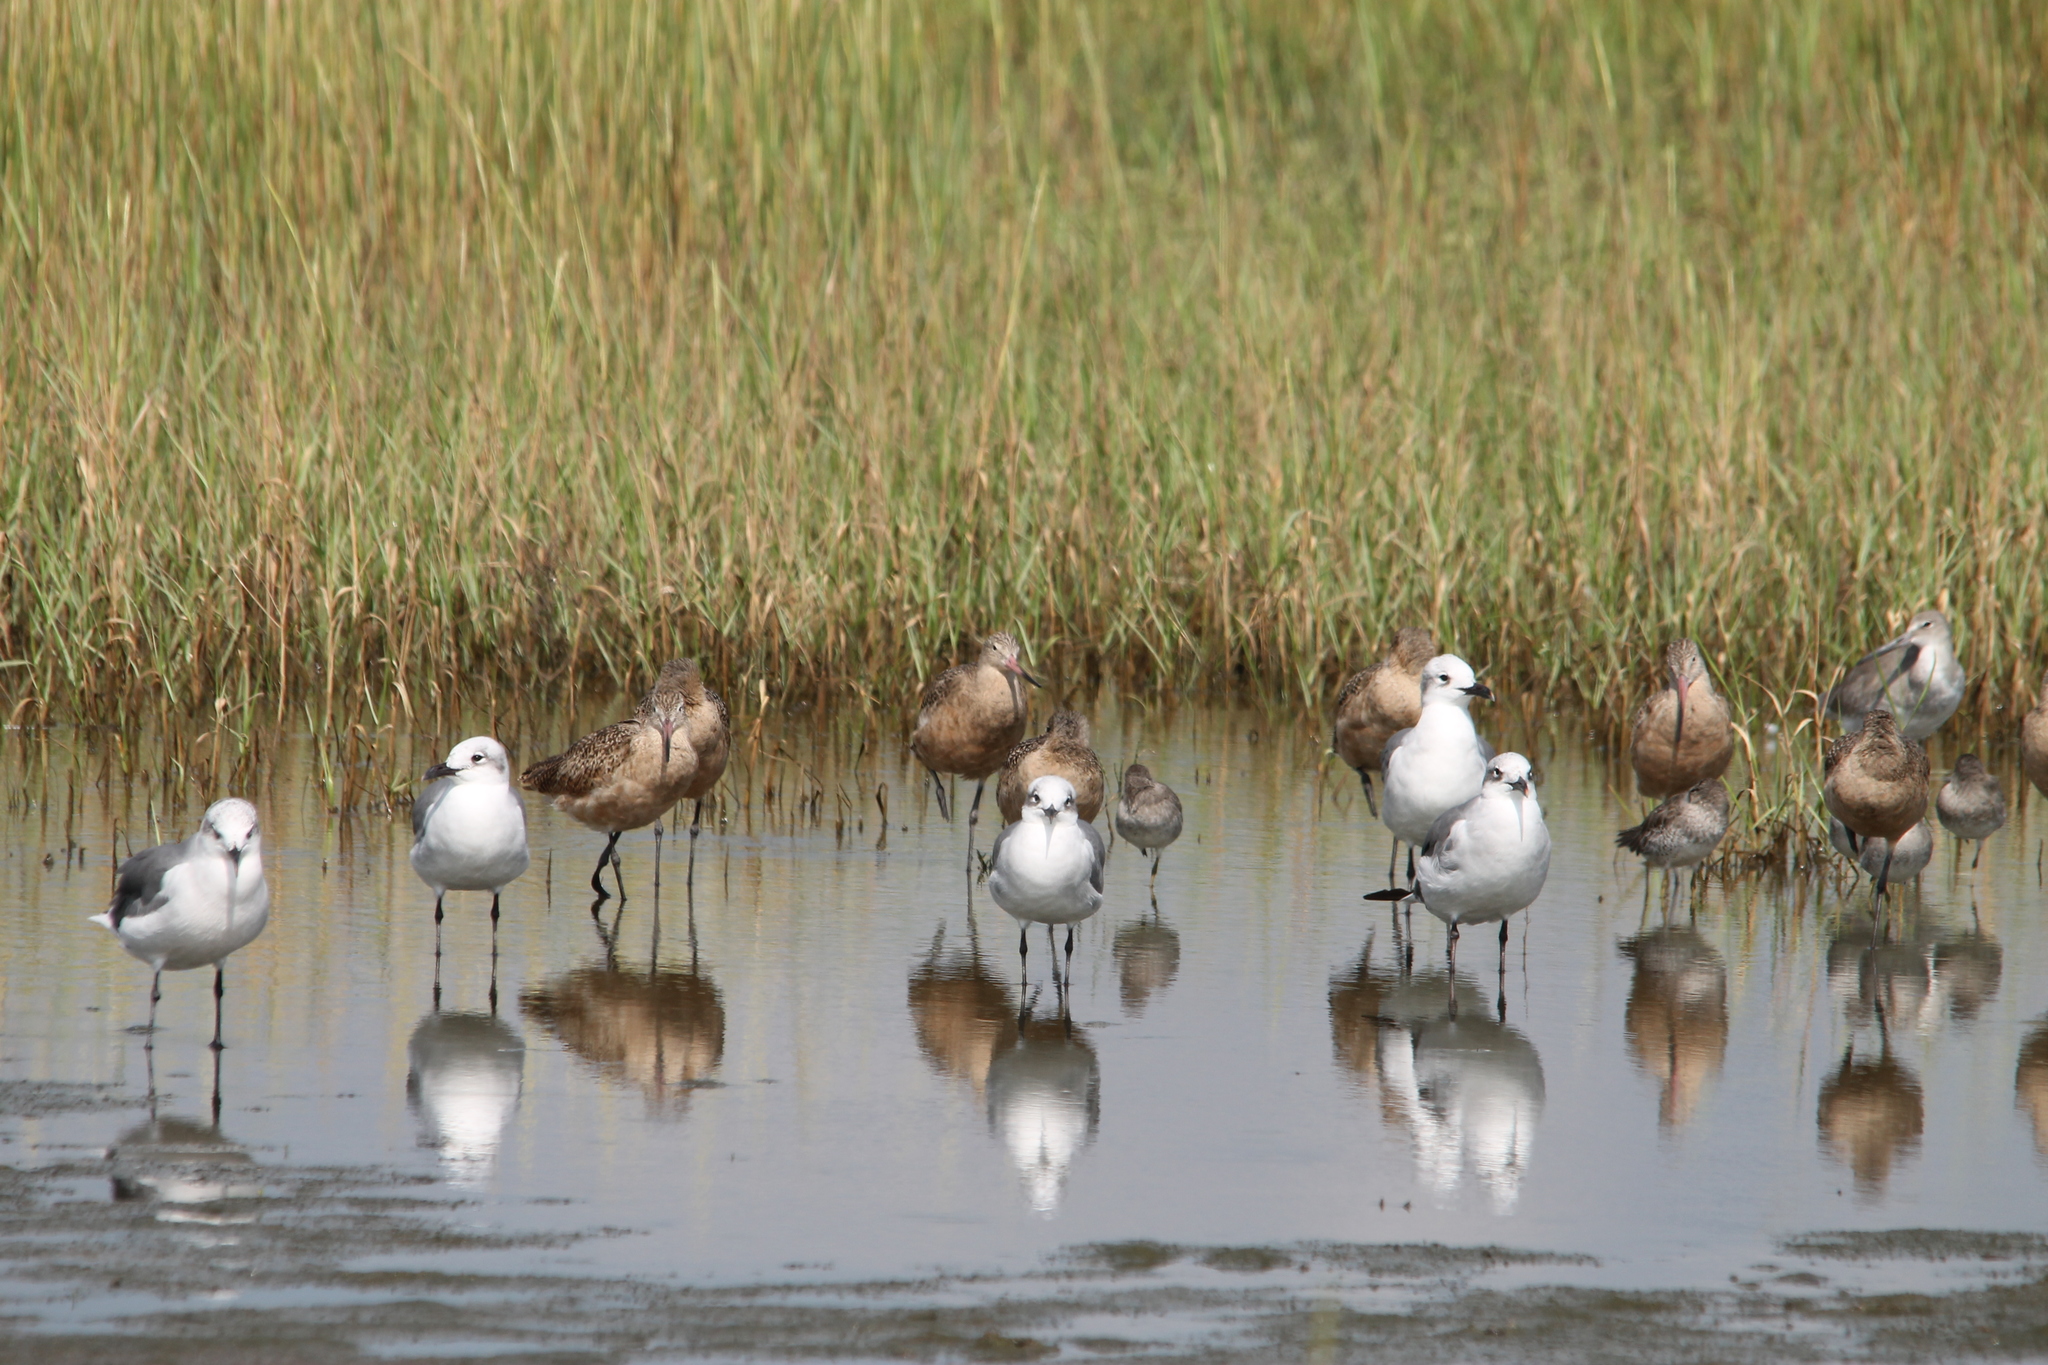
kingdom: Animalia
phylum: Chordata
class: Aves
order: Charadriiformes
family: Scolopacidae
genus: Limosa
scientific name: Limosa fedoa
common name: Marbled godwit
